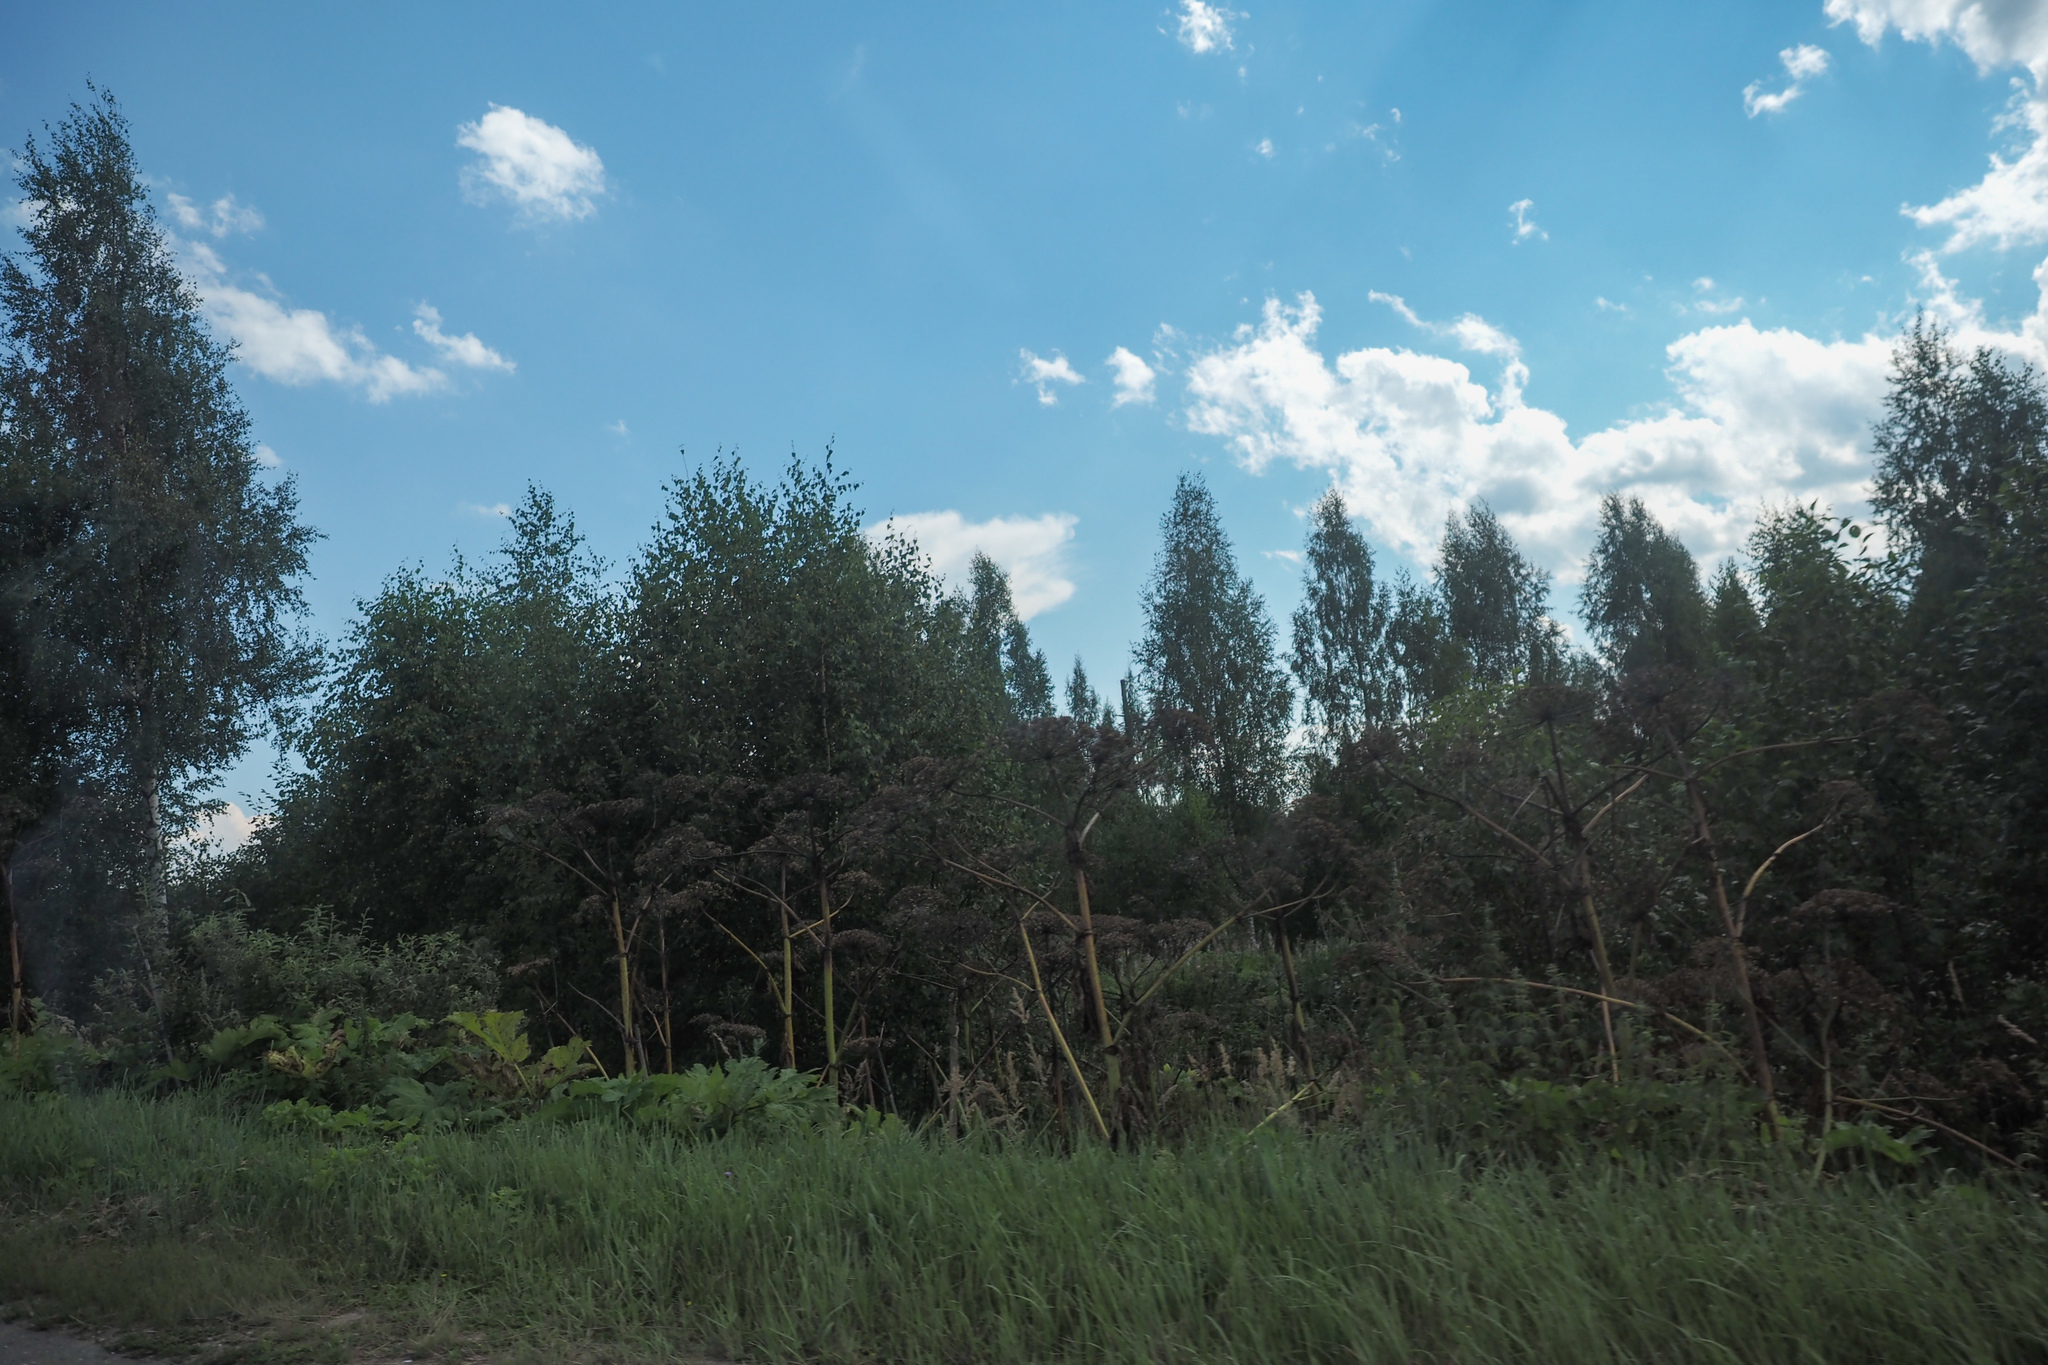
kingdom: Plantae
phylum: Tracheophyta
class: Magnoliopsida
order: Apiales
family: Apiaceae
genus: Heracleum
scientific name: Heracleum sosnowskyi
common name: Sosnowsky's hogweed
